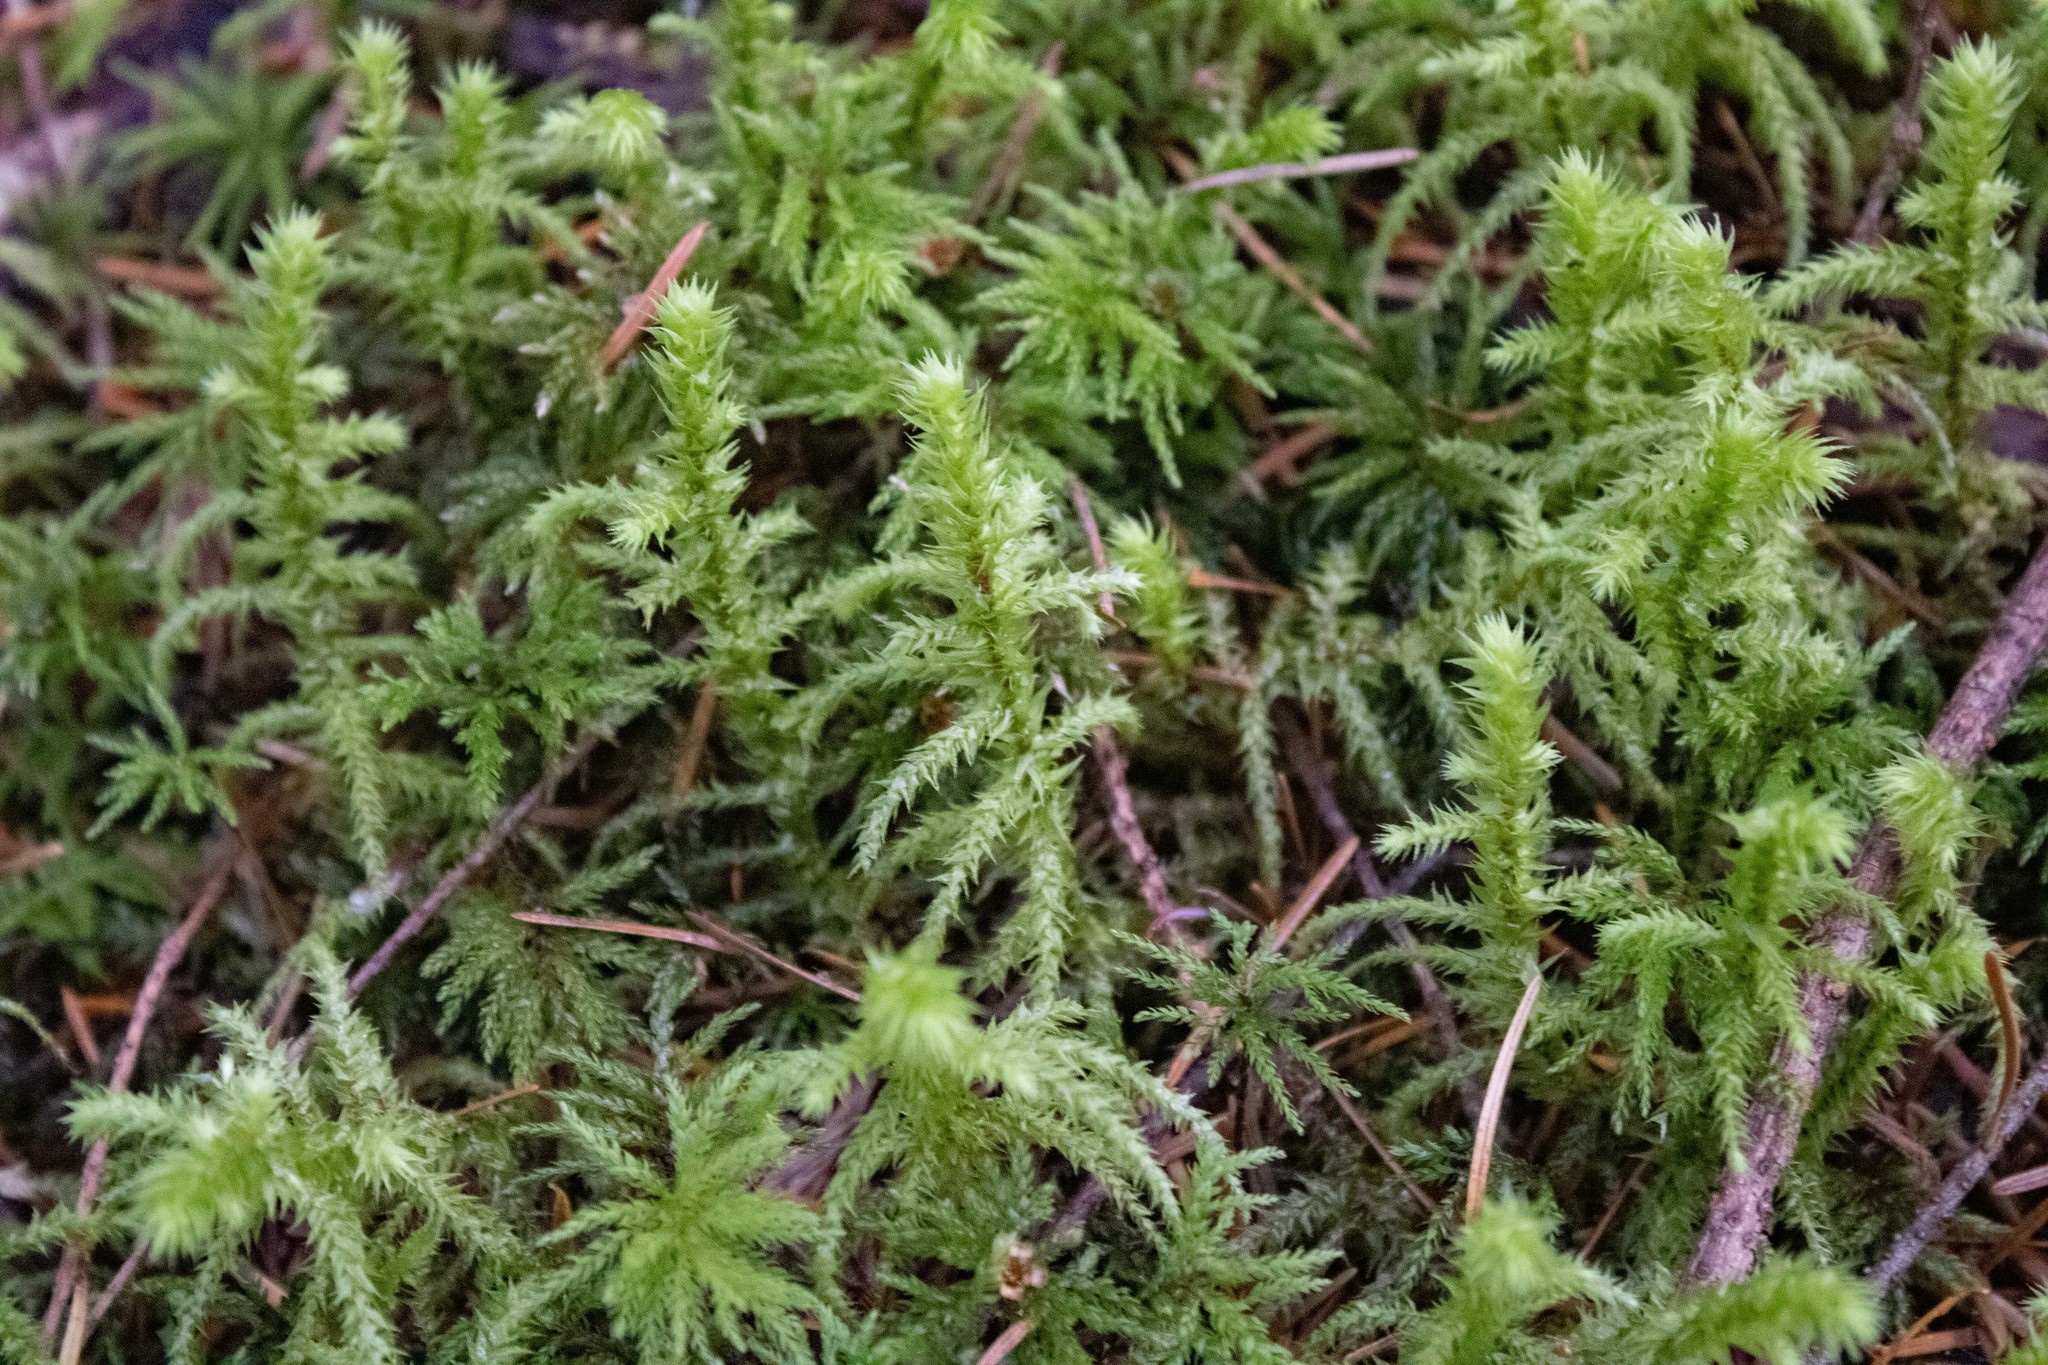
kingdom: Plantae
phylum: Bryophyta
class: Bryopsida
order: Hypnales
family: Hylocomiaceae
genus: Hylocomiadelphus
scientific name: Hylocomiadelphus triquetrus
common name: Rough goose neck moss
